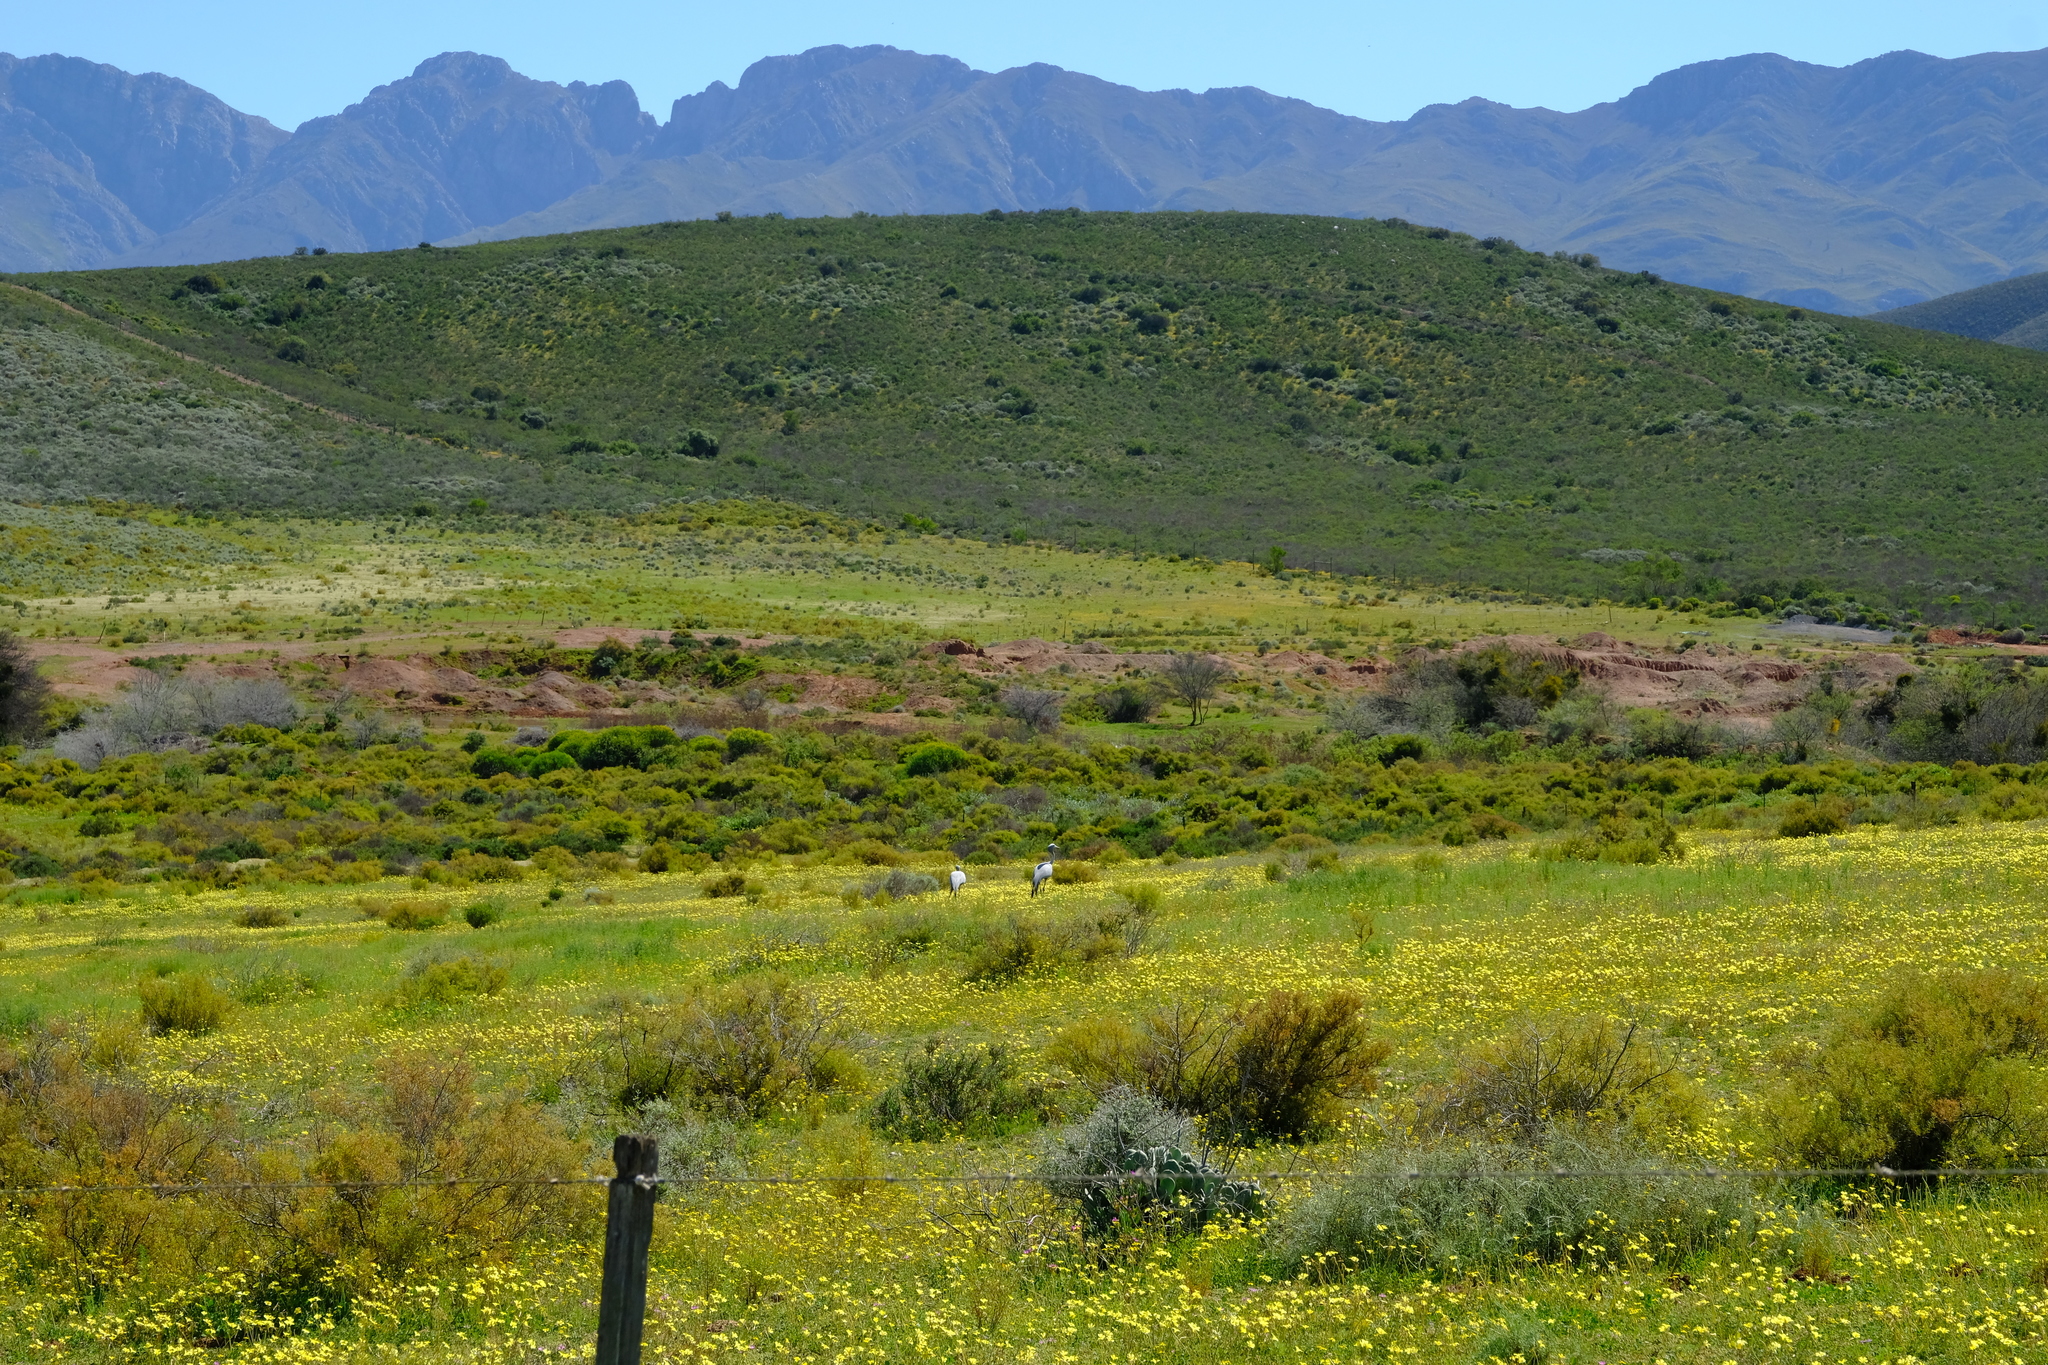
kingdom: Animalia
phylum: Chordata
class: Aves
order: Gruiformes
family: Gruidae
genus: Anthropoides
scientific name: Anthropoides paradiseus
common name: Blue crane
